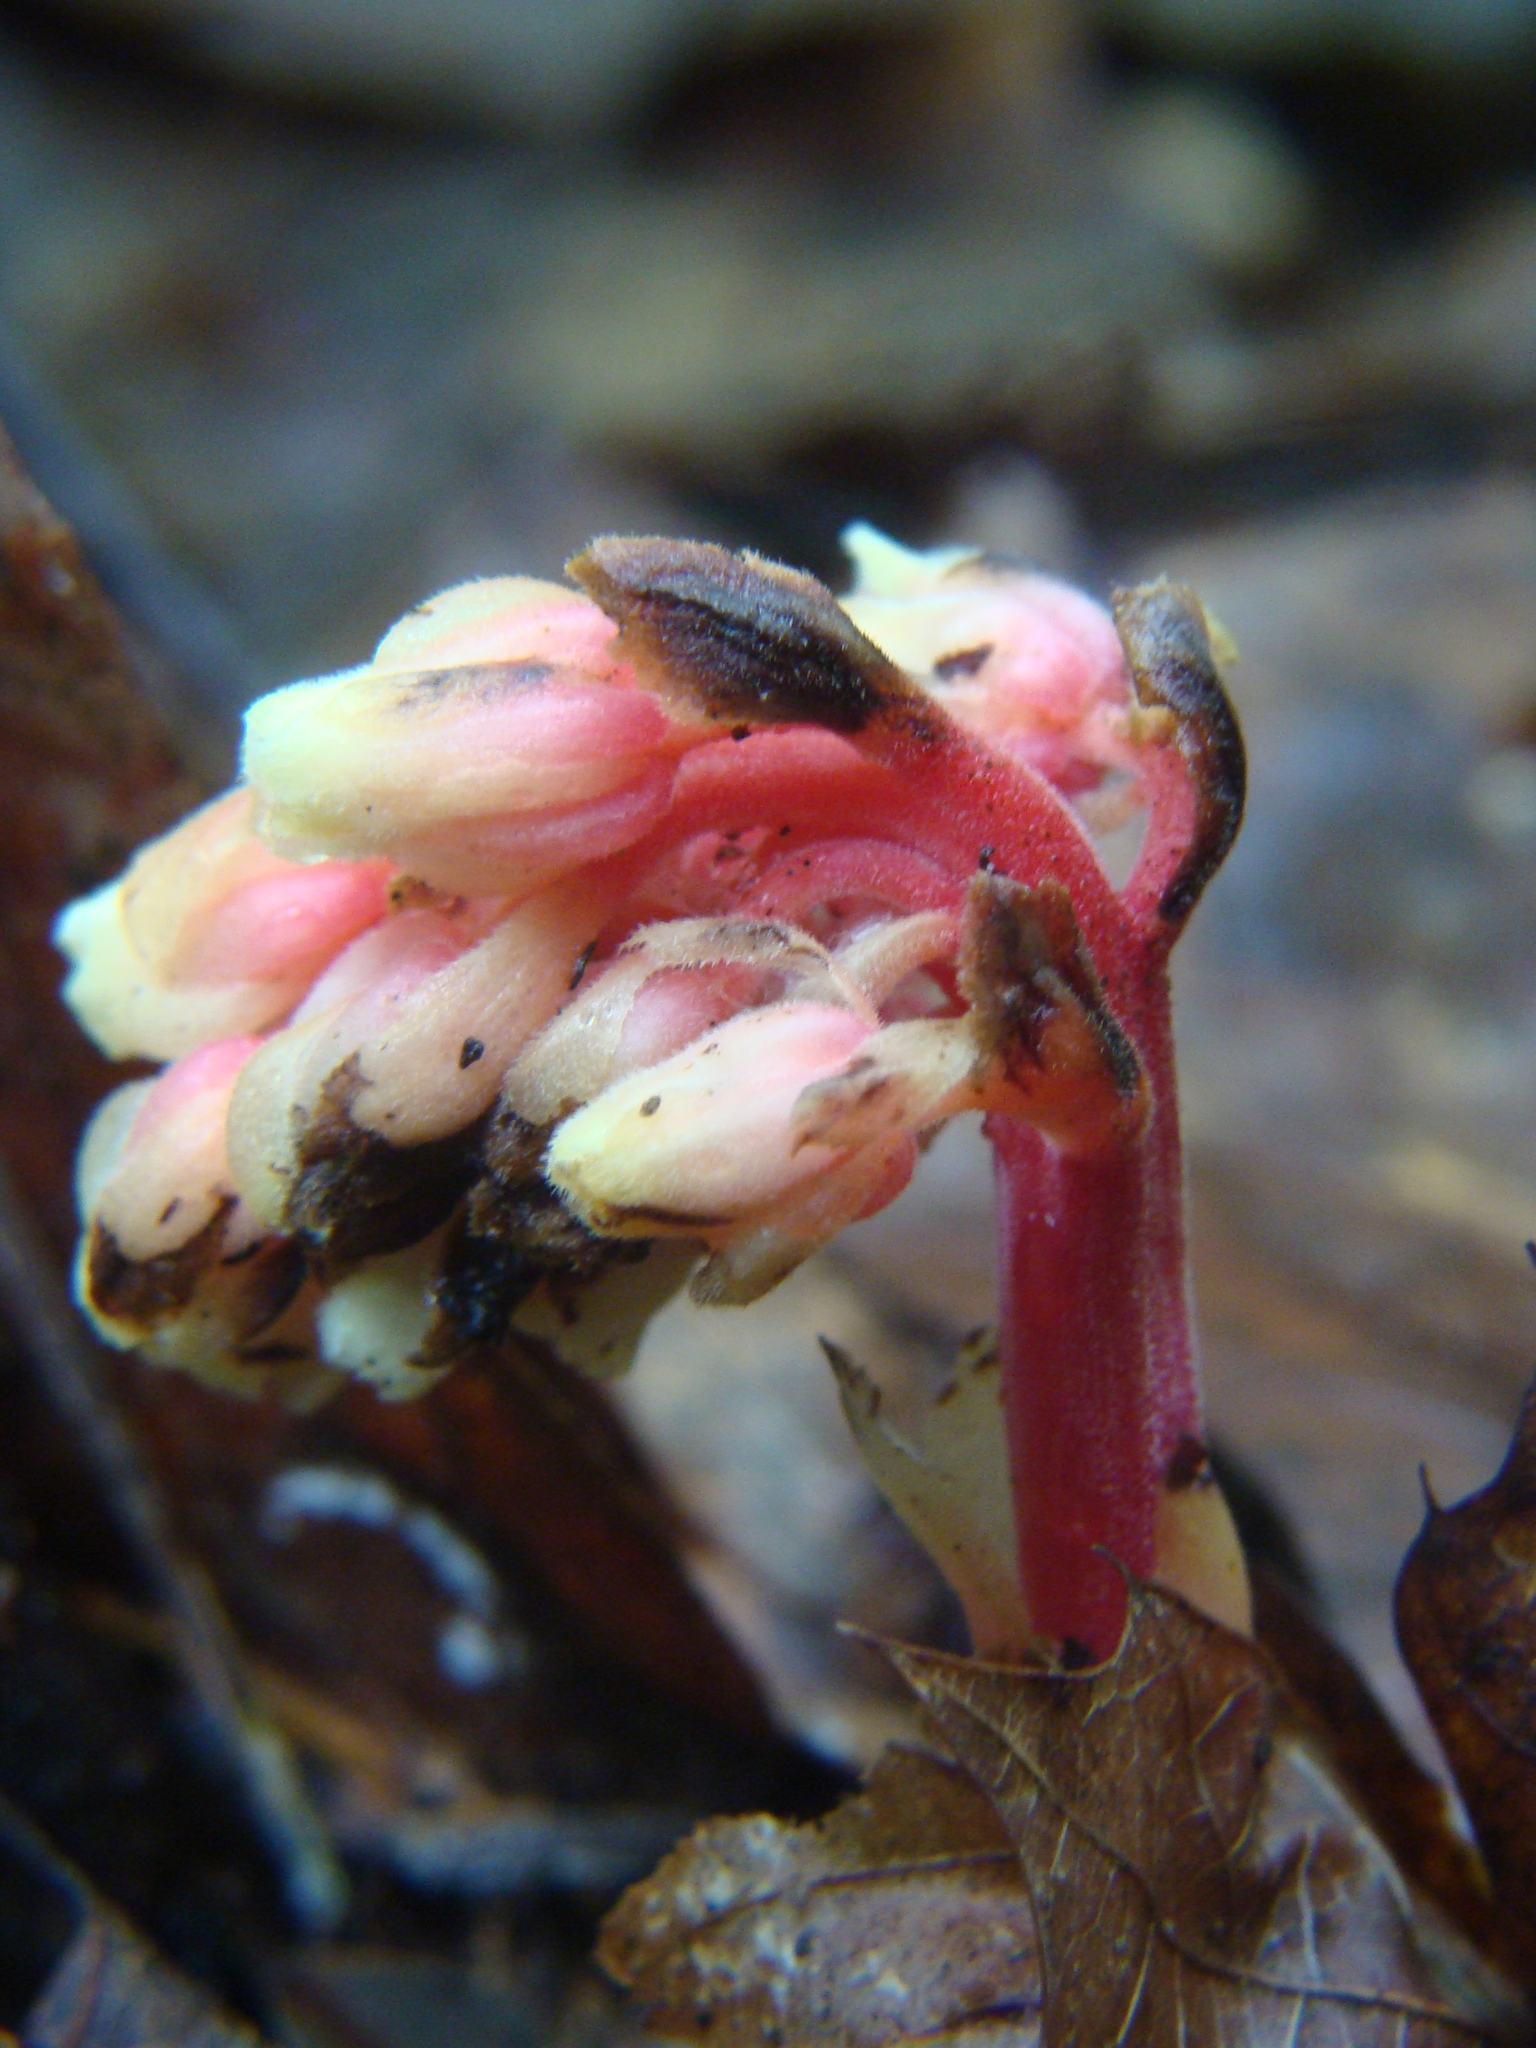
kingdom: Plantae
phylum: Tracheophyta
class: Magnoliopsida
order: Ericales
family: Ericaceae
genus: Hypopitys
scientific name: Hypopitys monotropa
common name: Yellow bird's-nest
